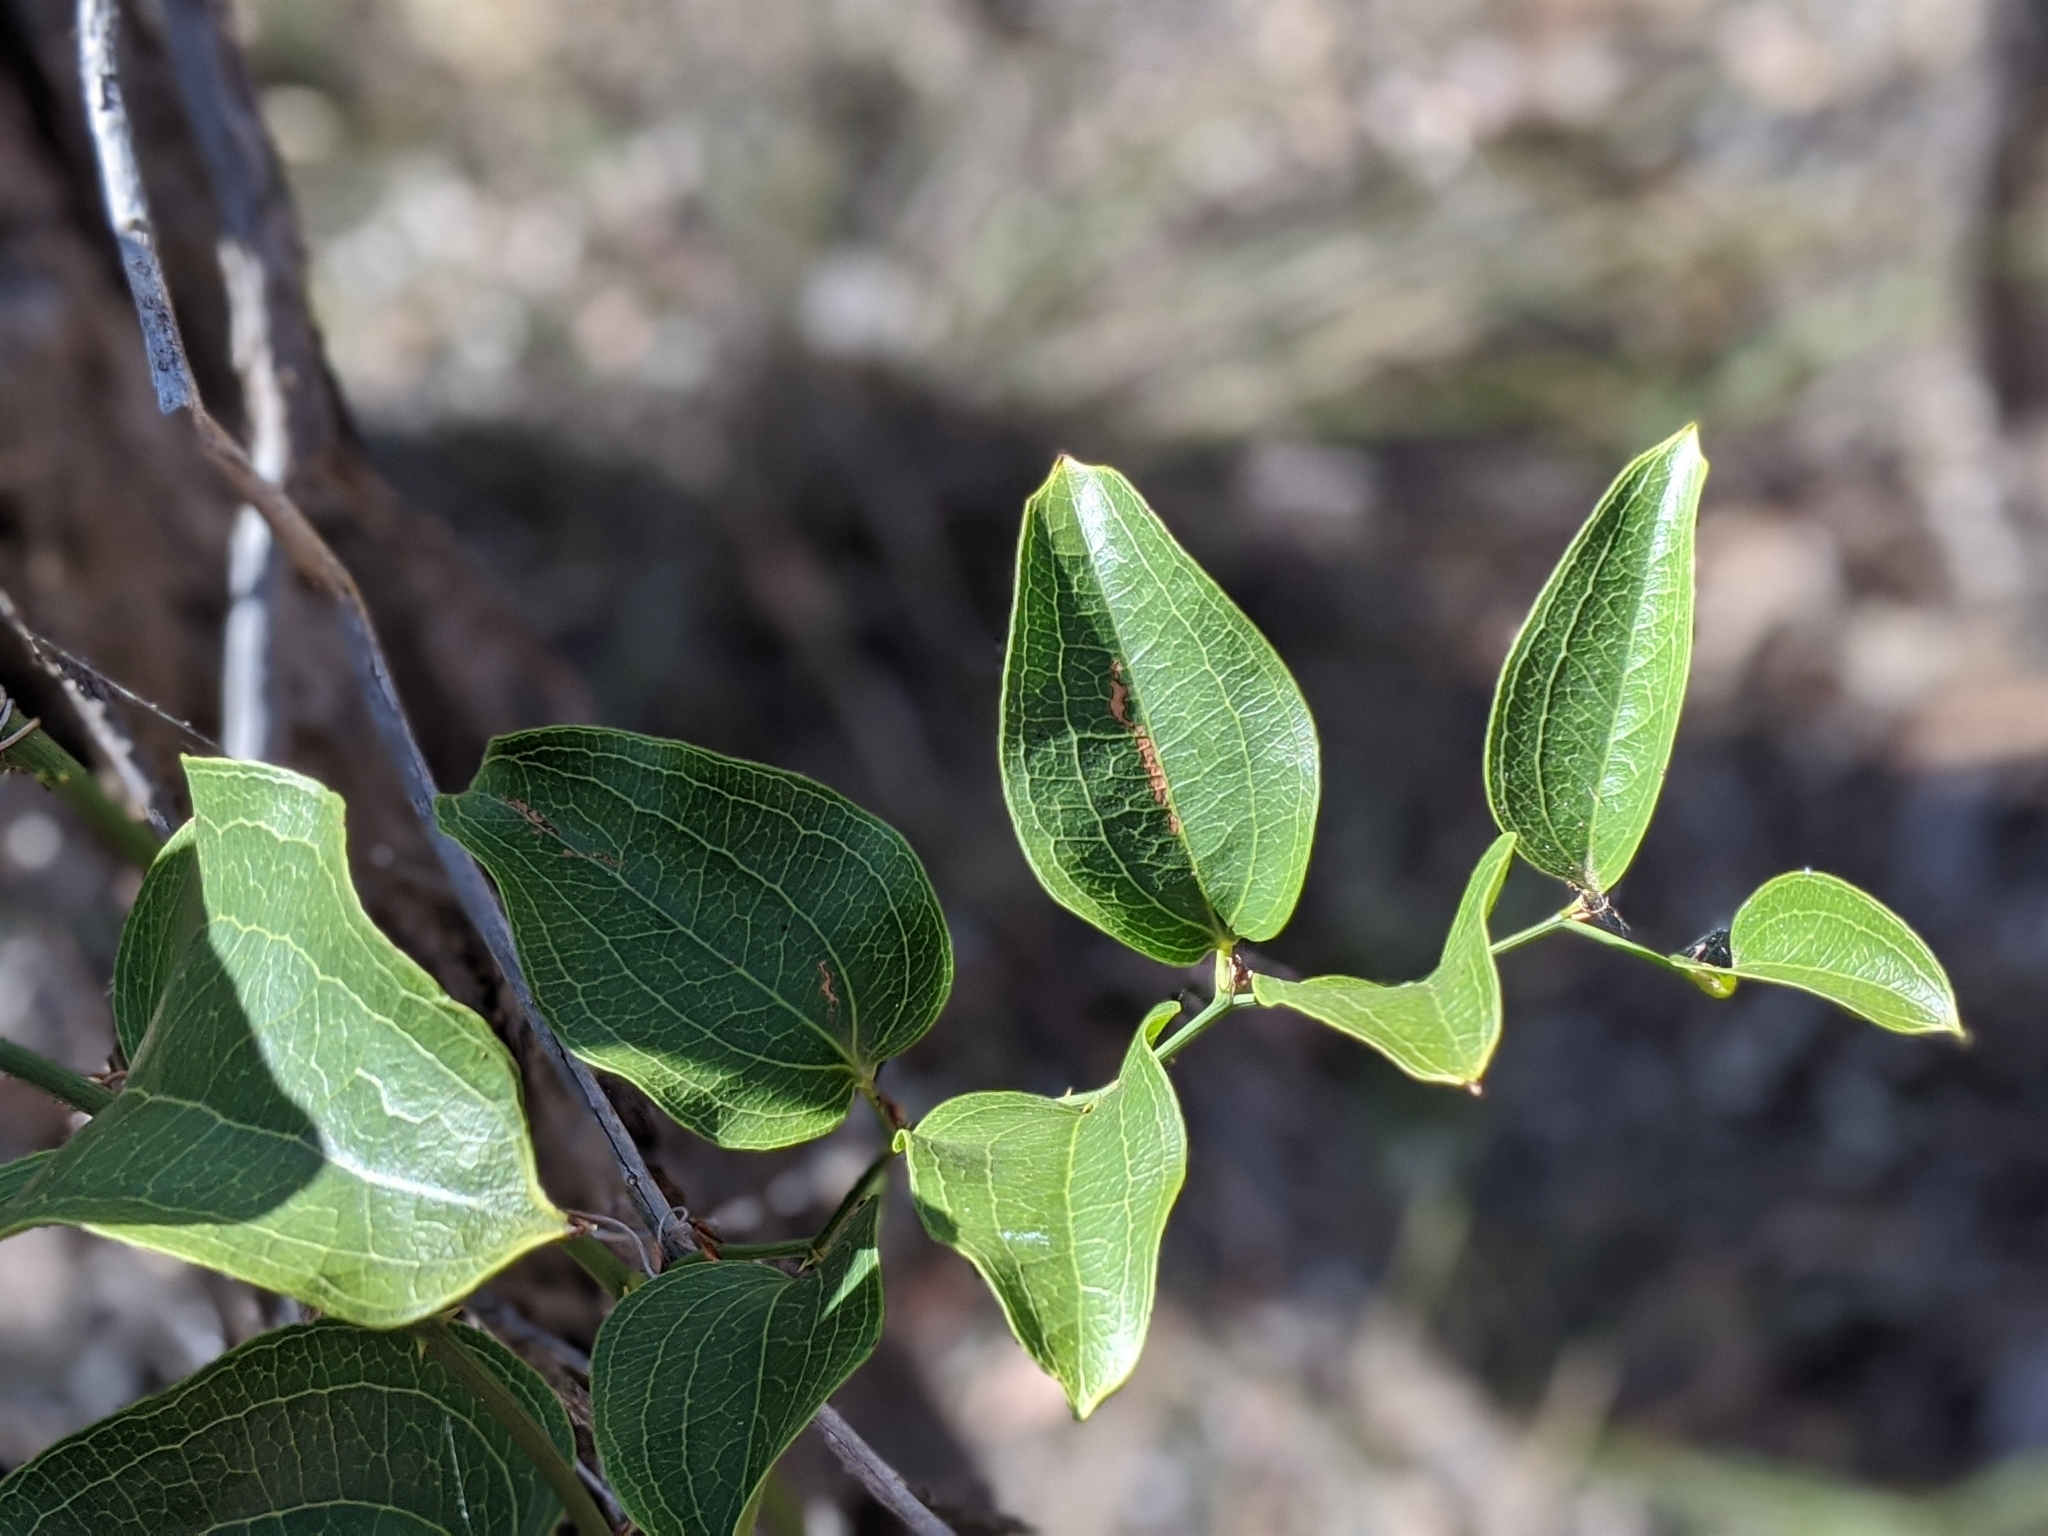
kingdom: Plantae
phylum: Tracheophyta
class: Liliopsida
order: Liliales
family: Smilacaceae
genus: Smilax
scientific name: Smilax australis
